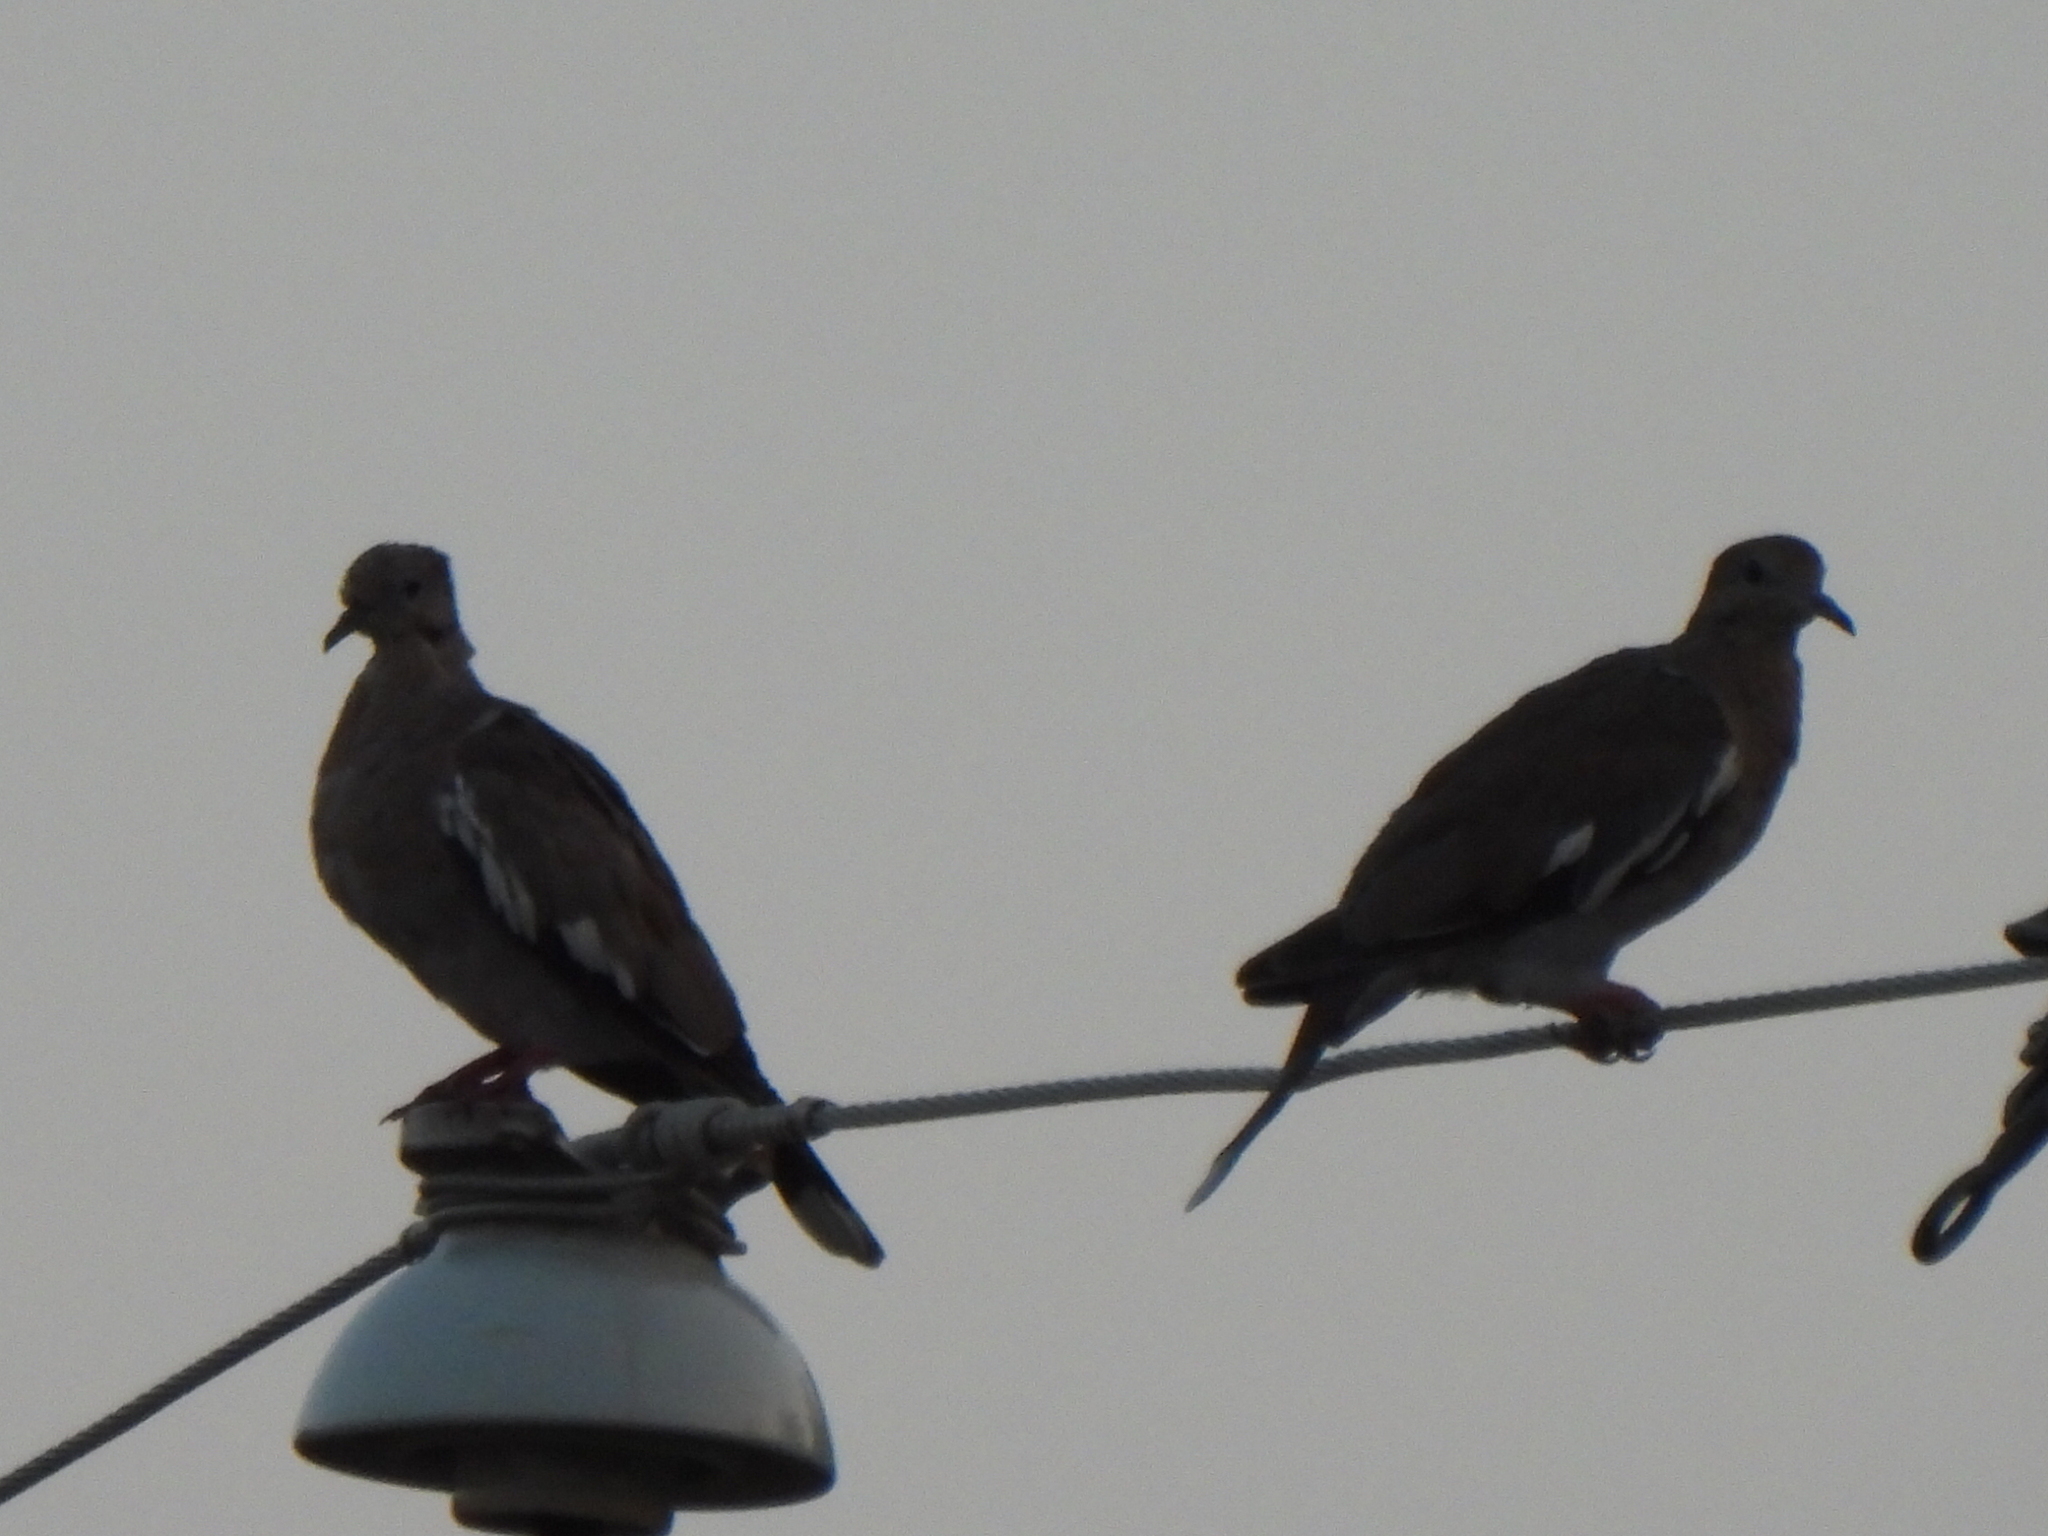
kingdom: Animalia
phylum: Chordata
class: Aves
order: Columbiformes
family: Columbidae
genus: Zenaida
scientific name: Zenaida asiatica
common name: White-winged dove
